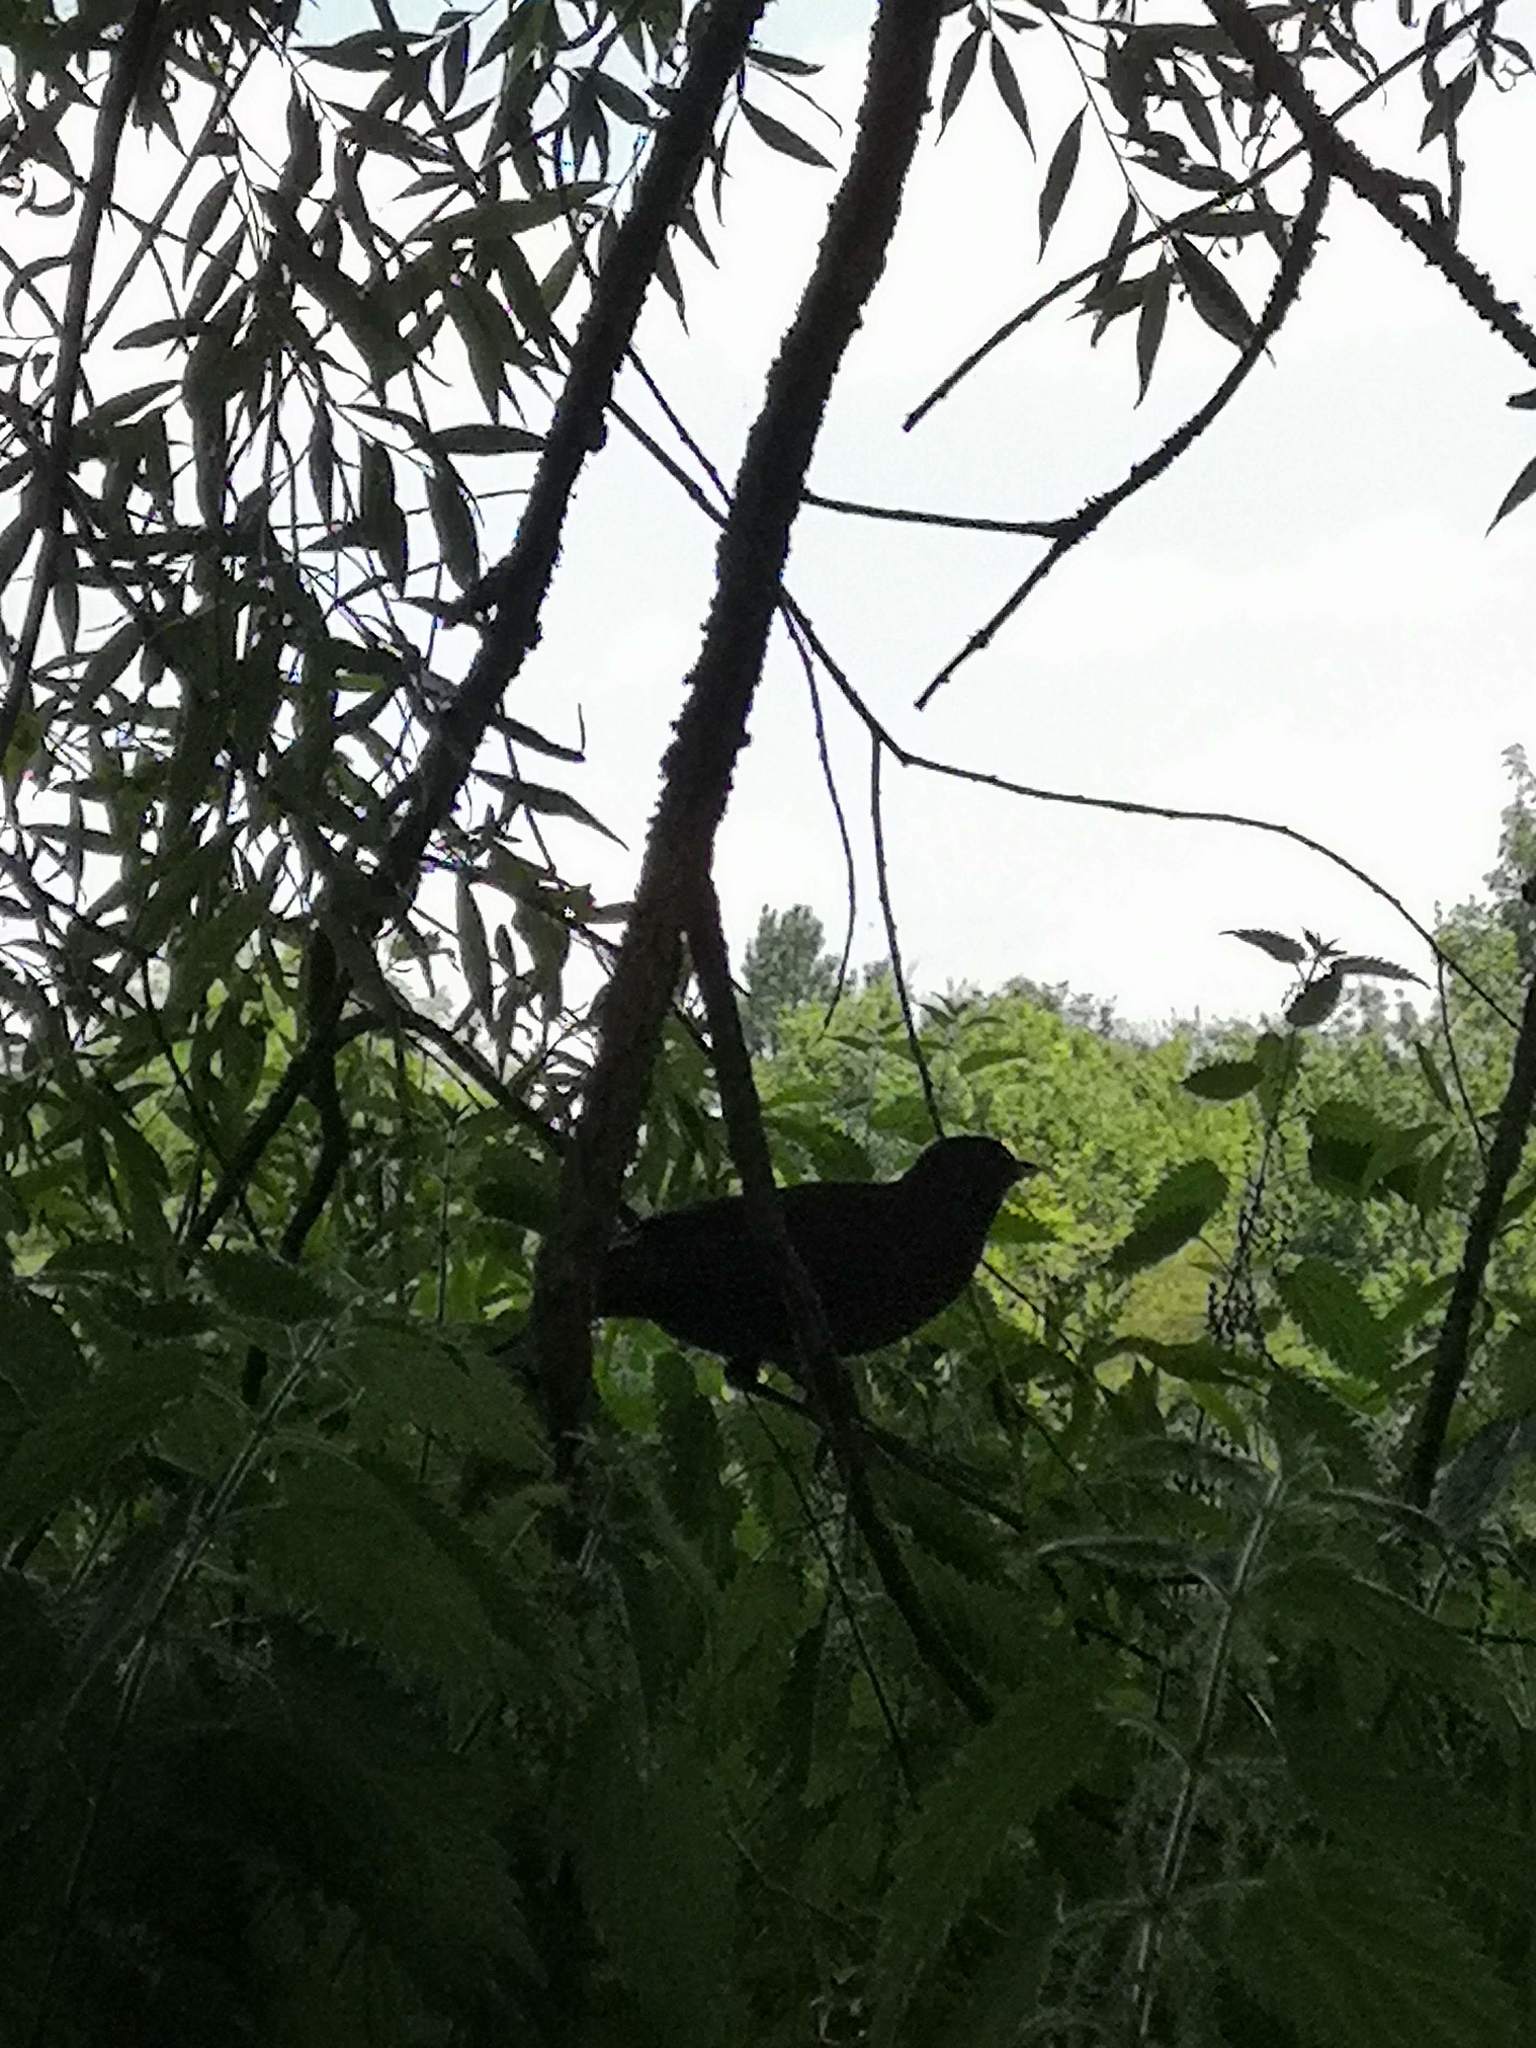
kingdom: Animalia
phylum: Chordata
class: Aves
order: Passeriformes
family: Turdidae
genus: Turdus
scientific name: Turdus merula
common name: Common blackbird
